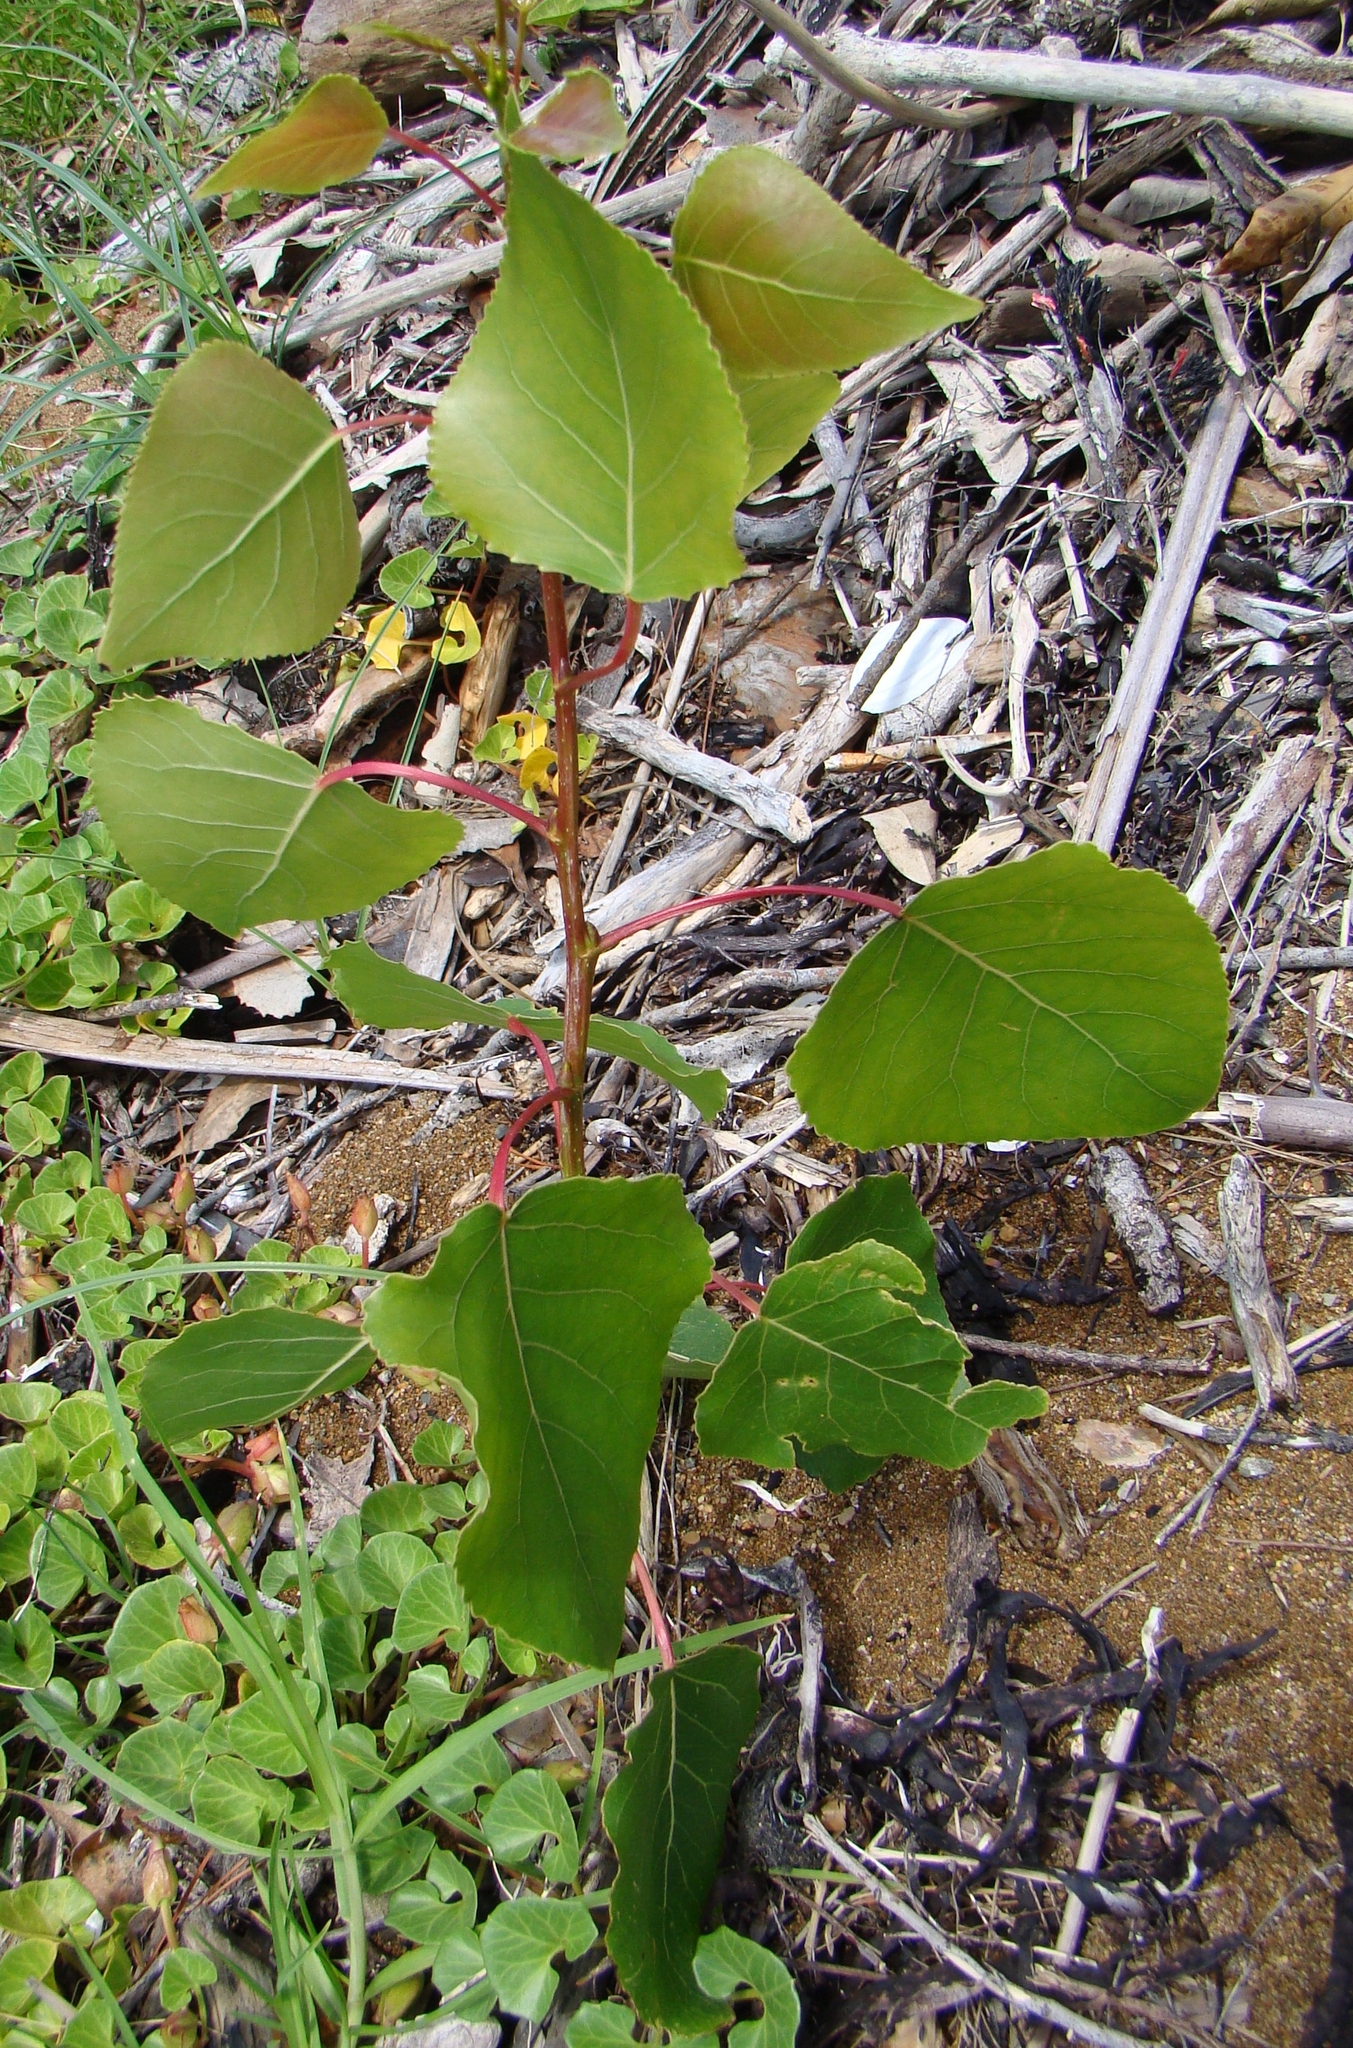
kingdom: Plantae
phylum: Tracheophyta
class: Magnoliopsida
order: Malpighiales
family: Salicaceae
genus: Populus
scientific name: Populus nigra
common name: Black poplar
